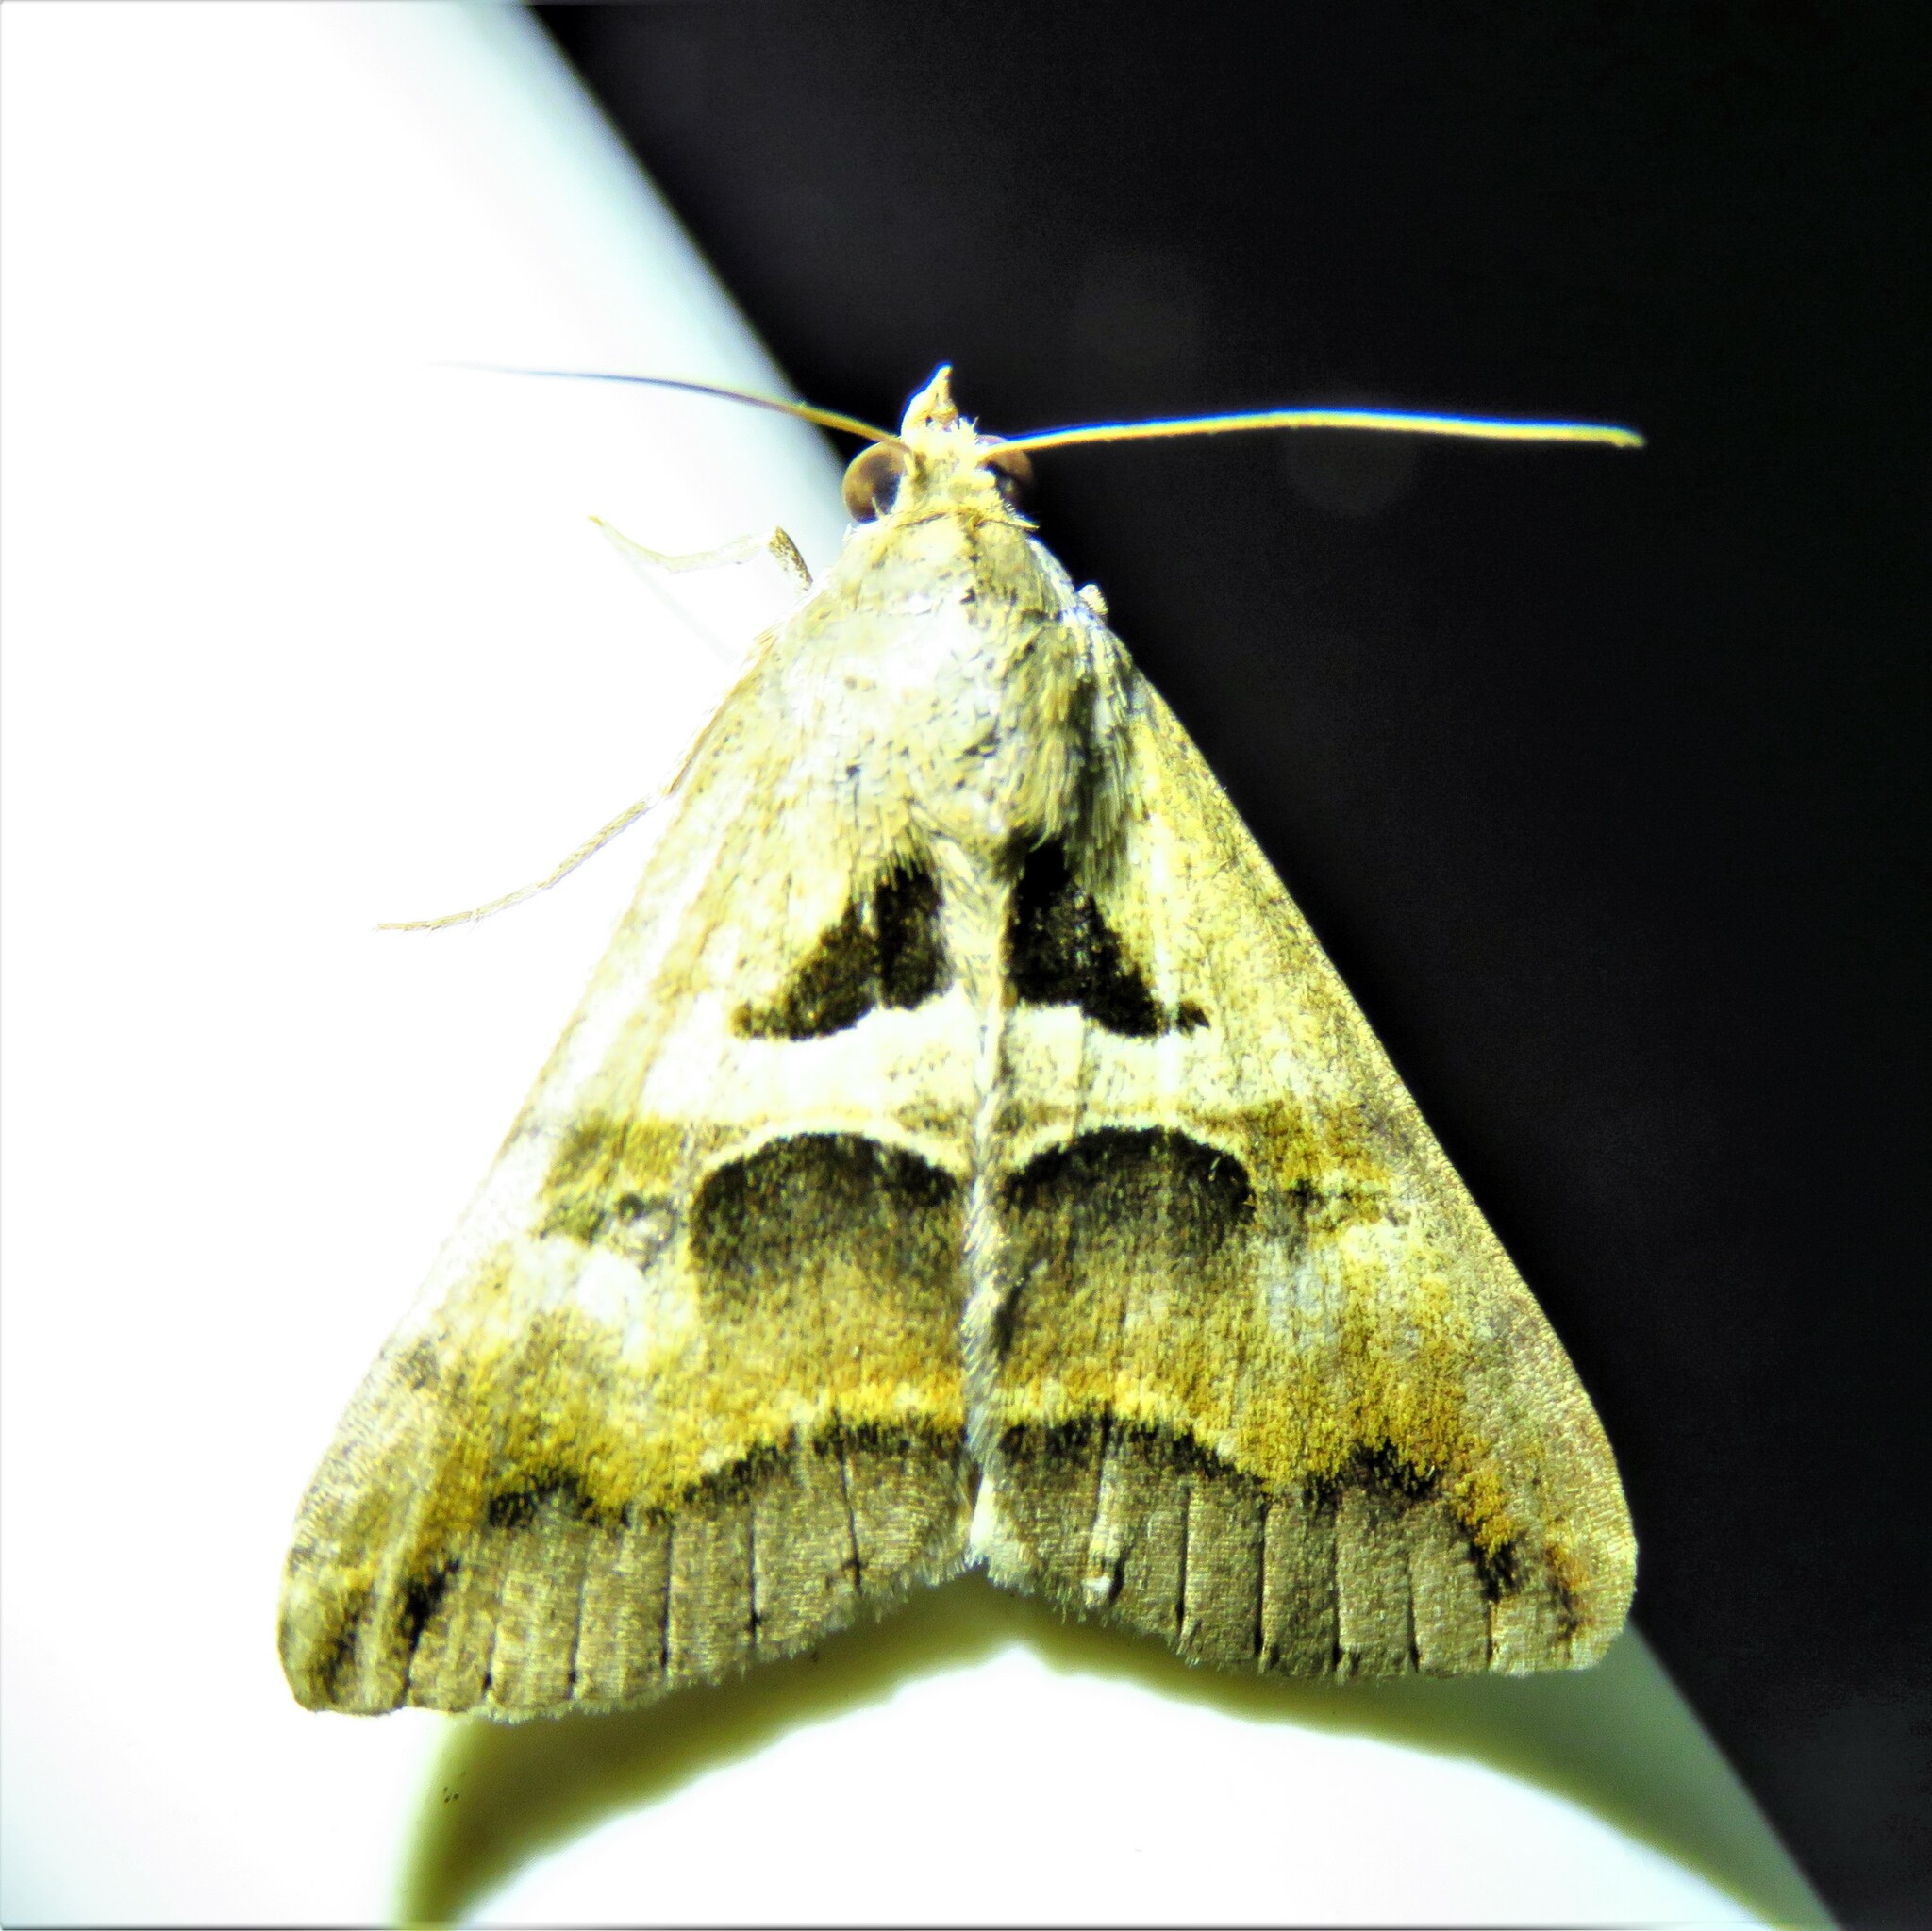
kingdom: Animalia
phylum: Arthropoda
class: Insecta
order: Lepidoptera
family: Erebidae
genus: Melipotis
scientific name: Melipotis cellaris
